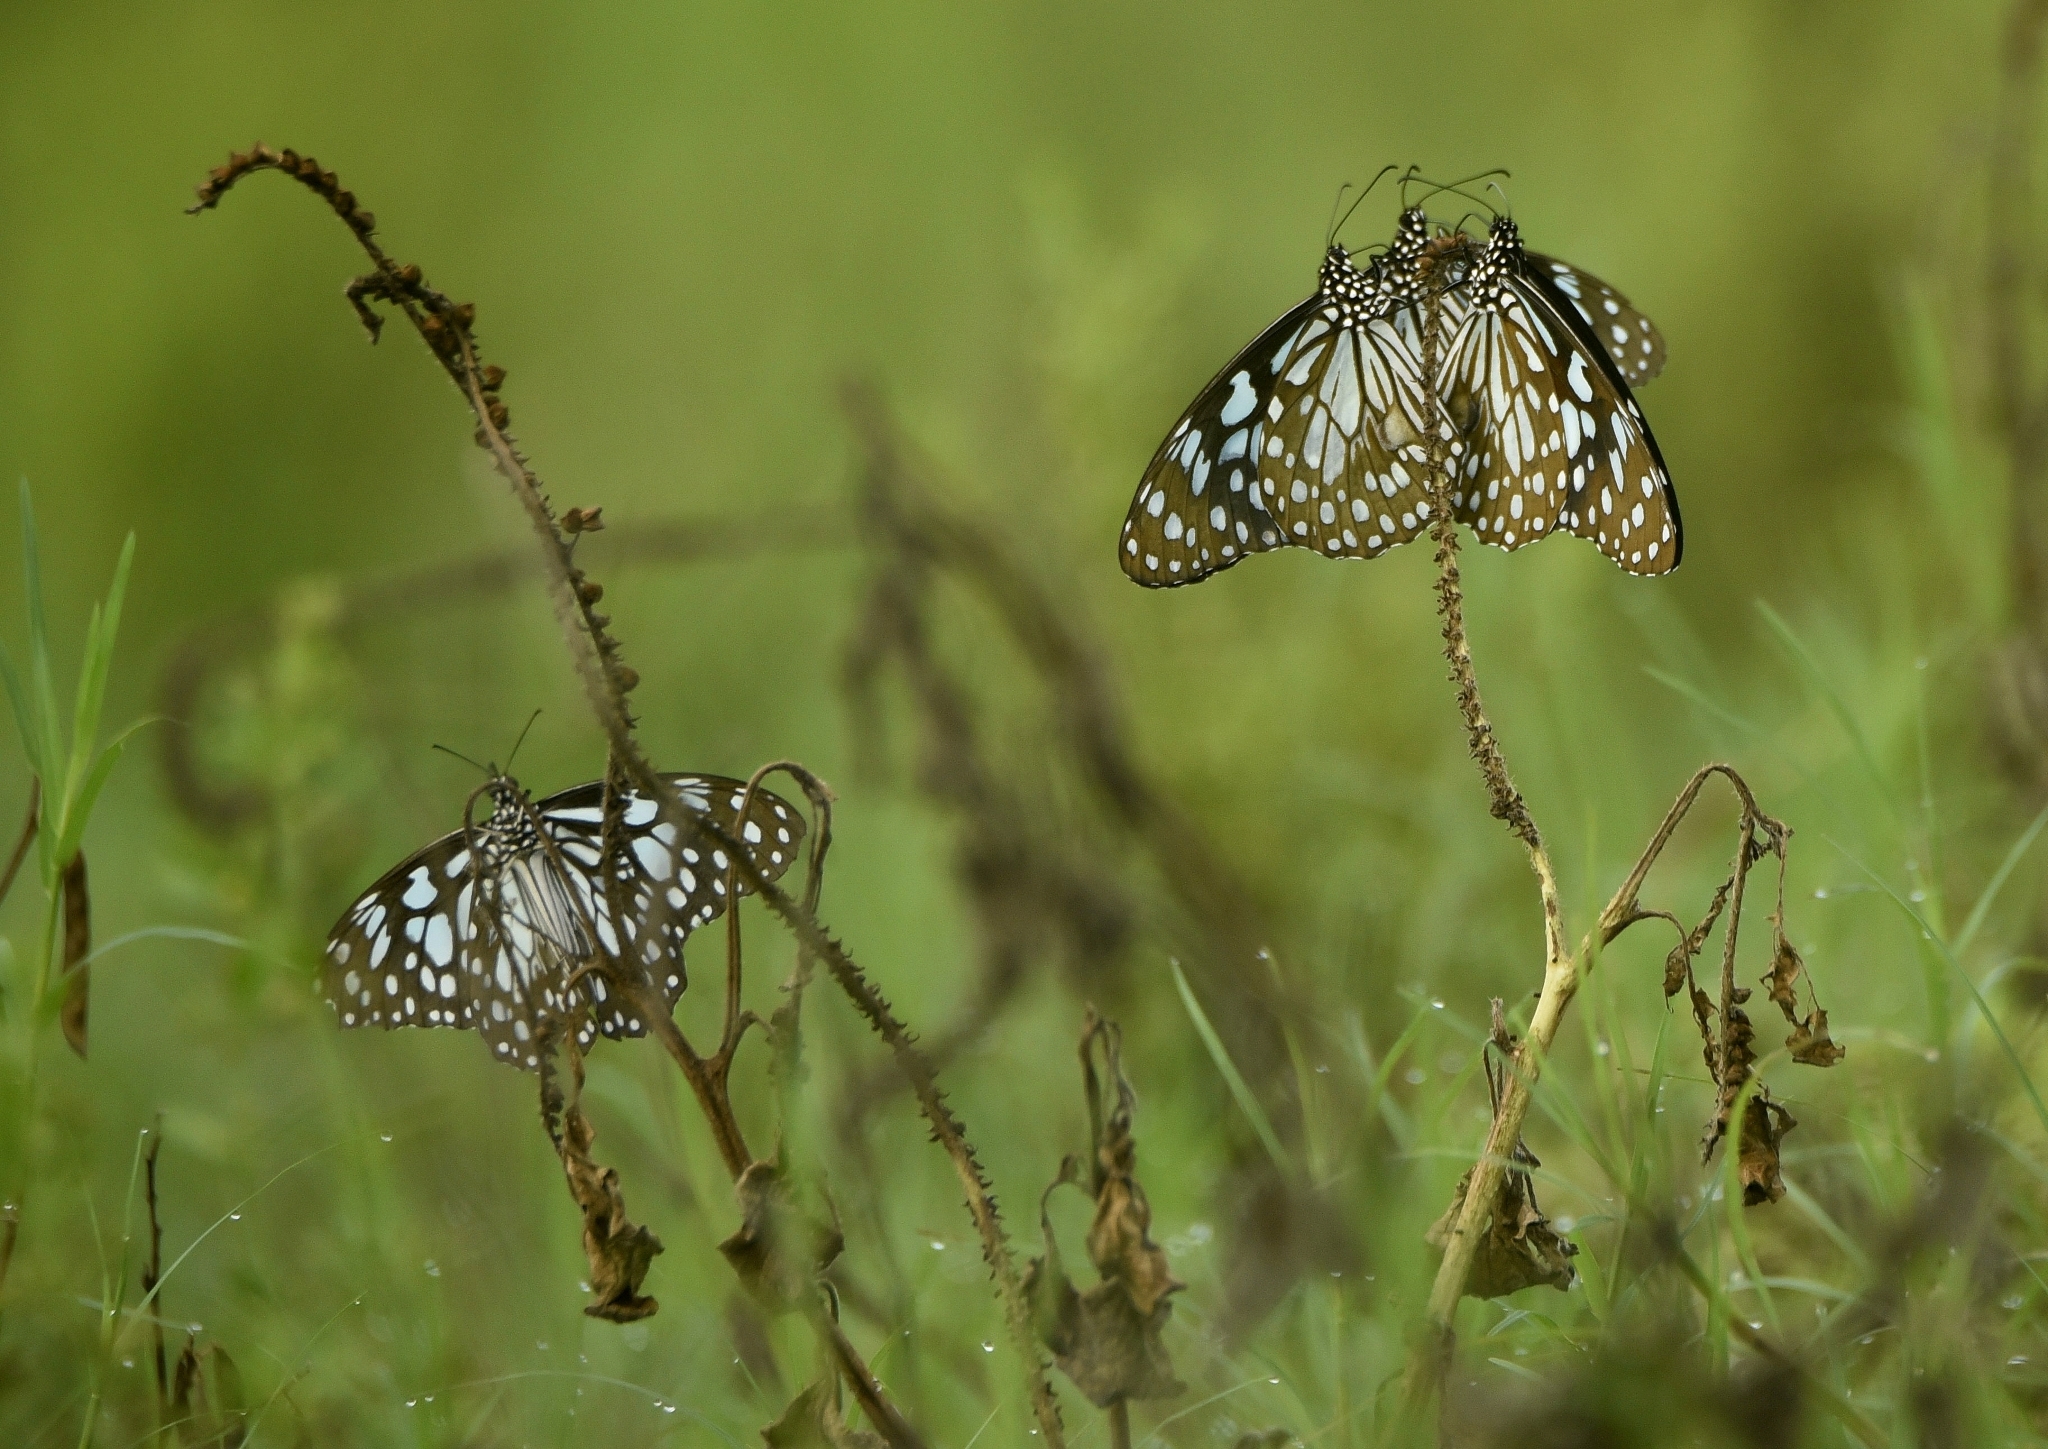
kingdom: Animalia
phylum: Arthropoda
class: Insecta
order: Lepidoptera
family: Nymphalidae
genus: Tirumala
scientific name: Tirumala limniace
